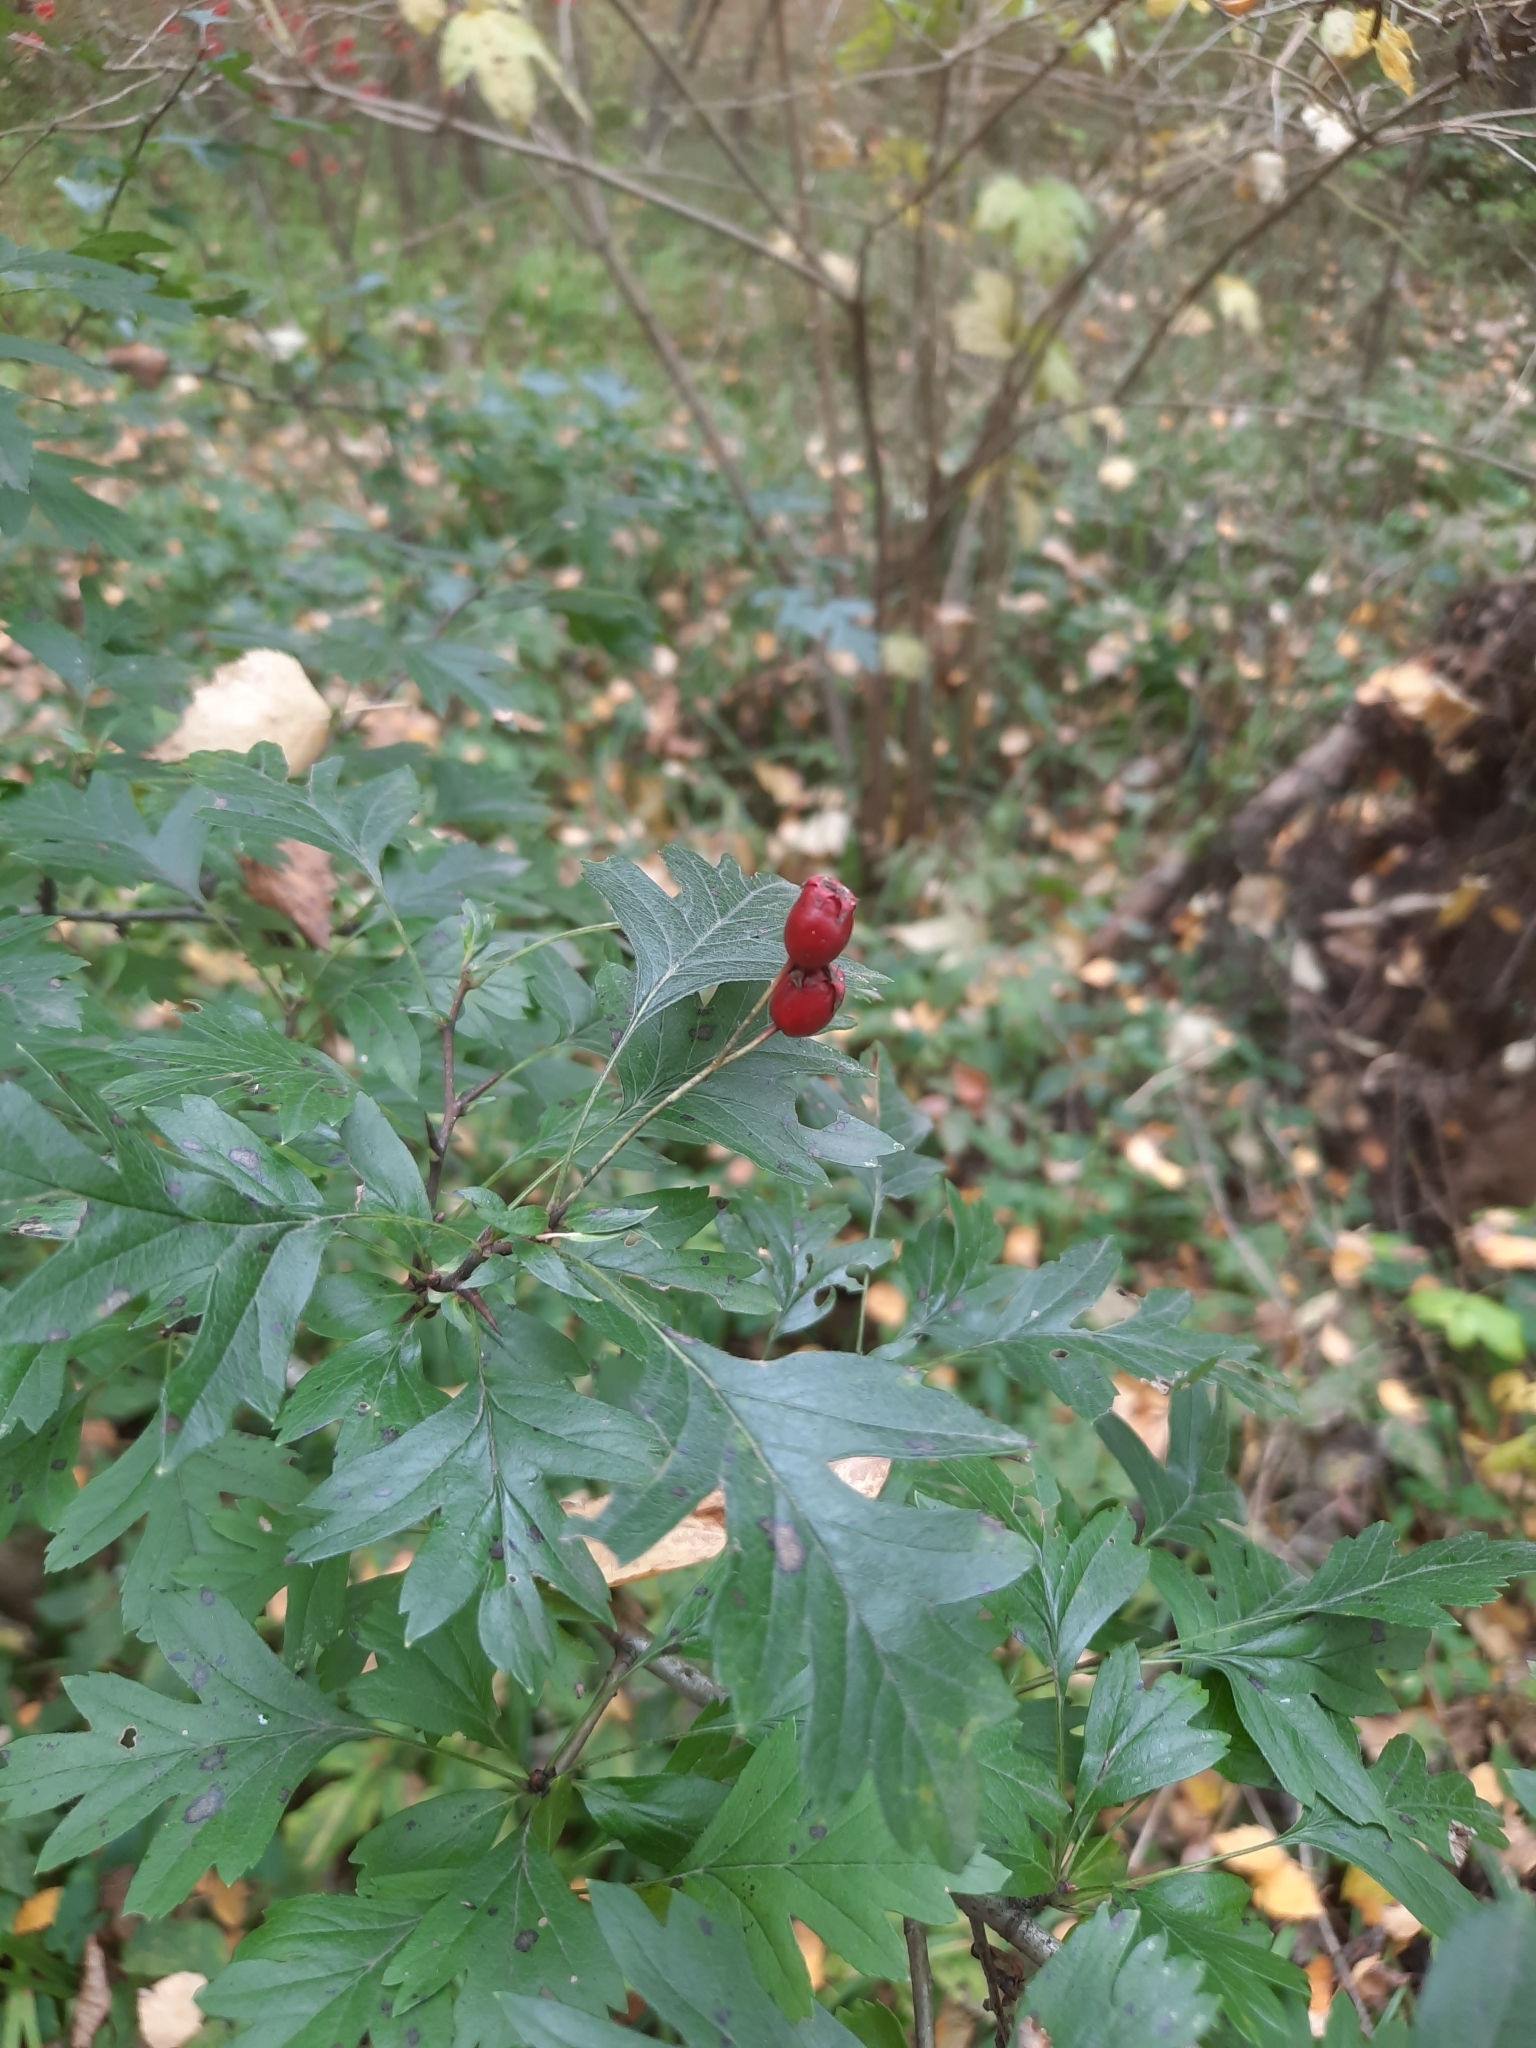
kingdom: Plantae
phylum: Tracheophyta
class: Magnoliopsida
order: Rosales
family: Rosaceae
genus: Crataegus
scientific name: Crataegus monogyna
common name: Hawthorn
